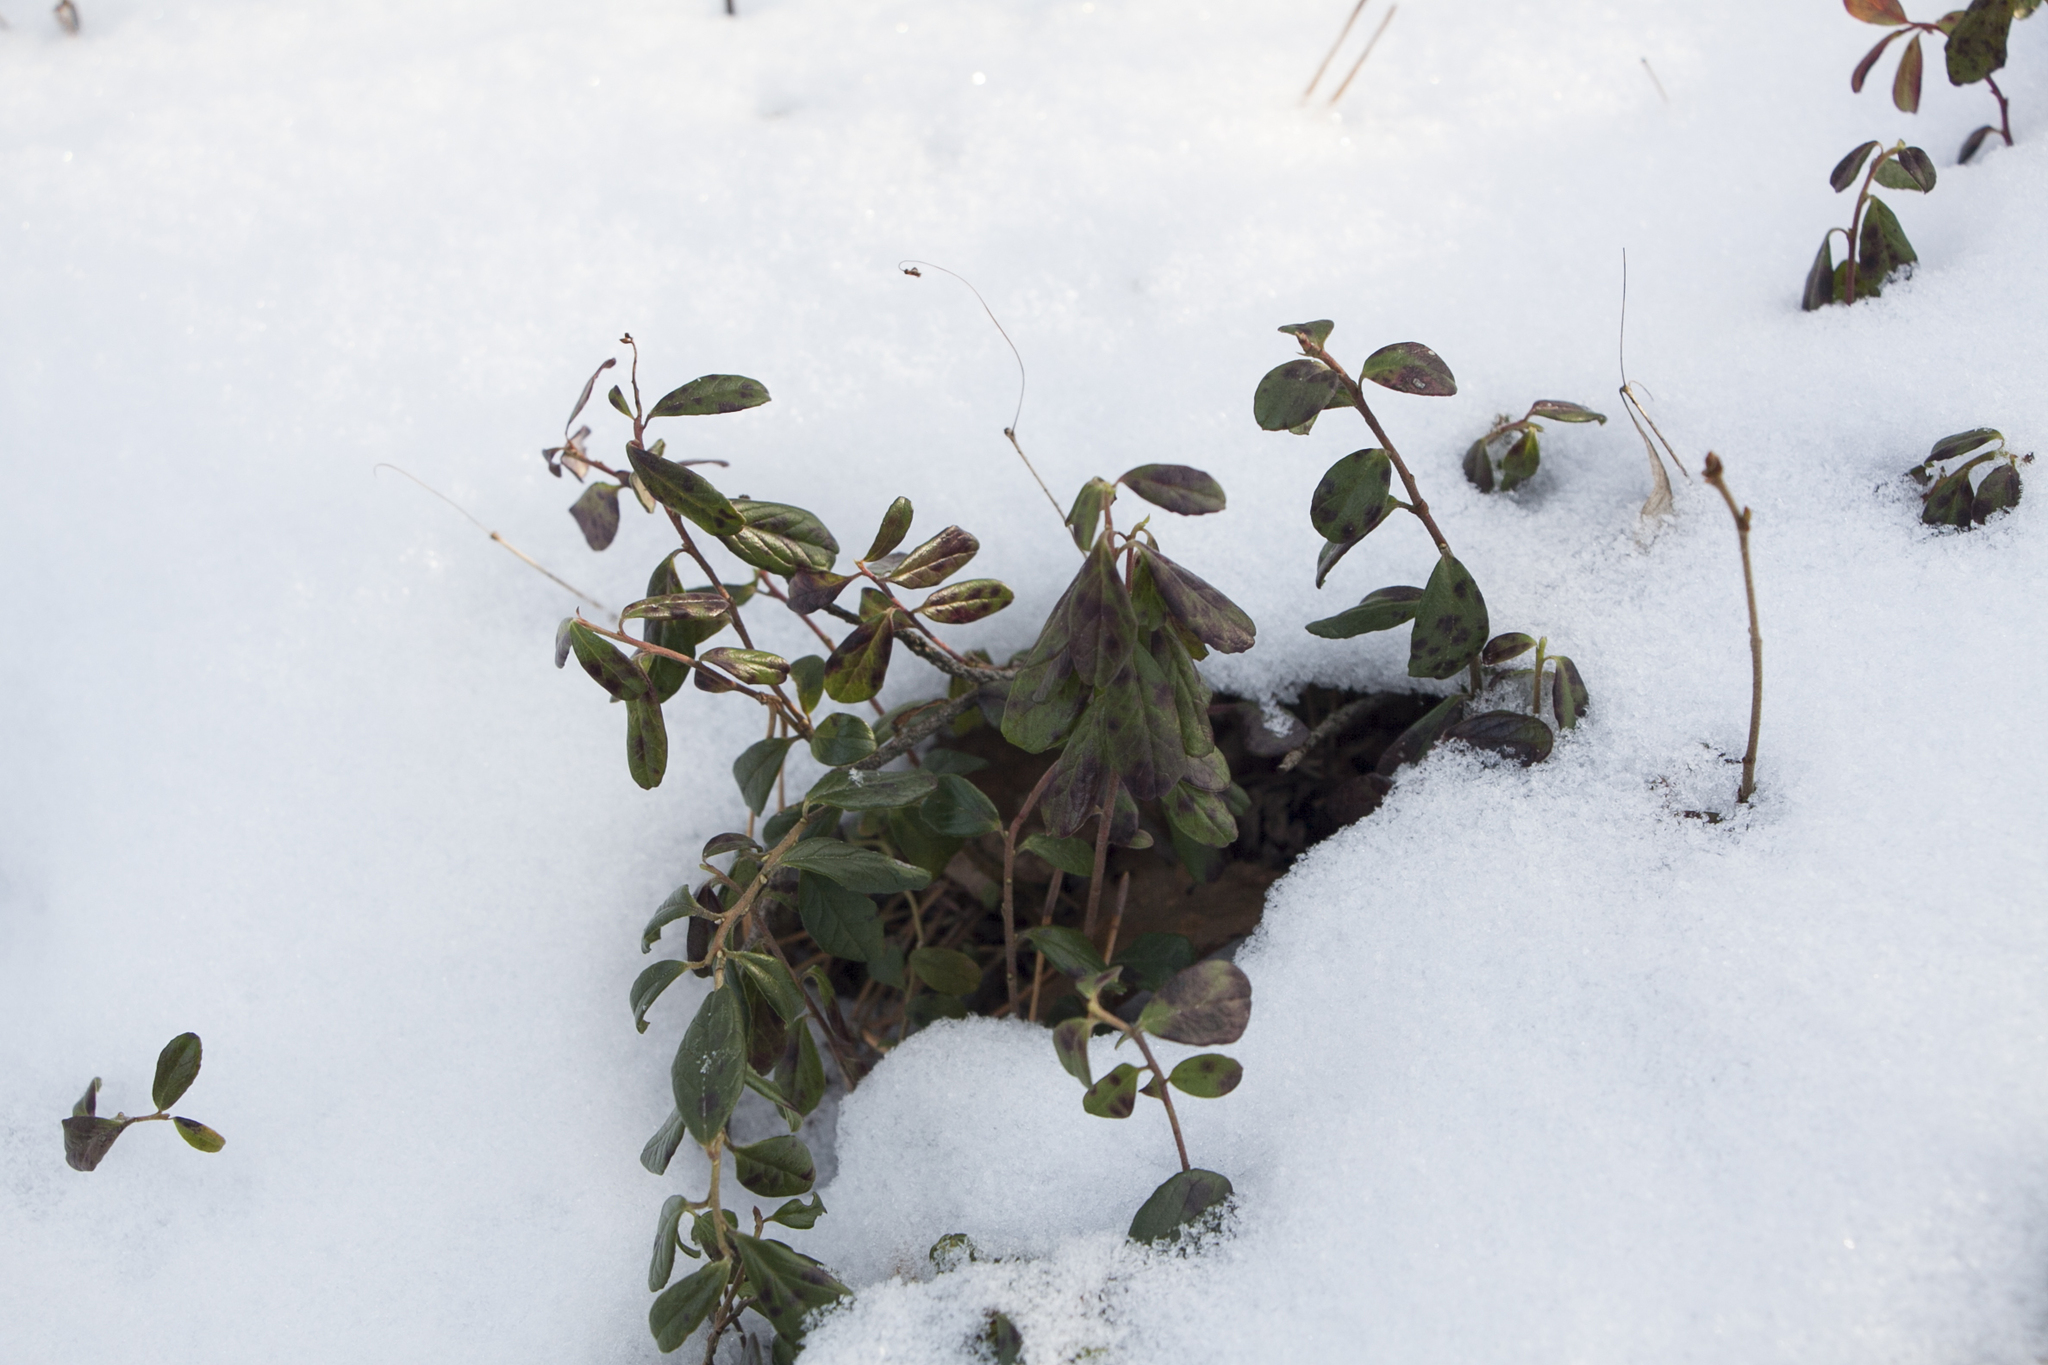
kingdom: Plantae
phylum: Tracheophyta
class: Magnoliopsida
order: Ericales
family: Ericaceae
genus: Vaccinium
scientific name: Vaccinium vitis-idaea
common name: Cowberry
